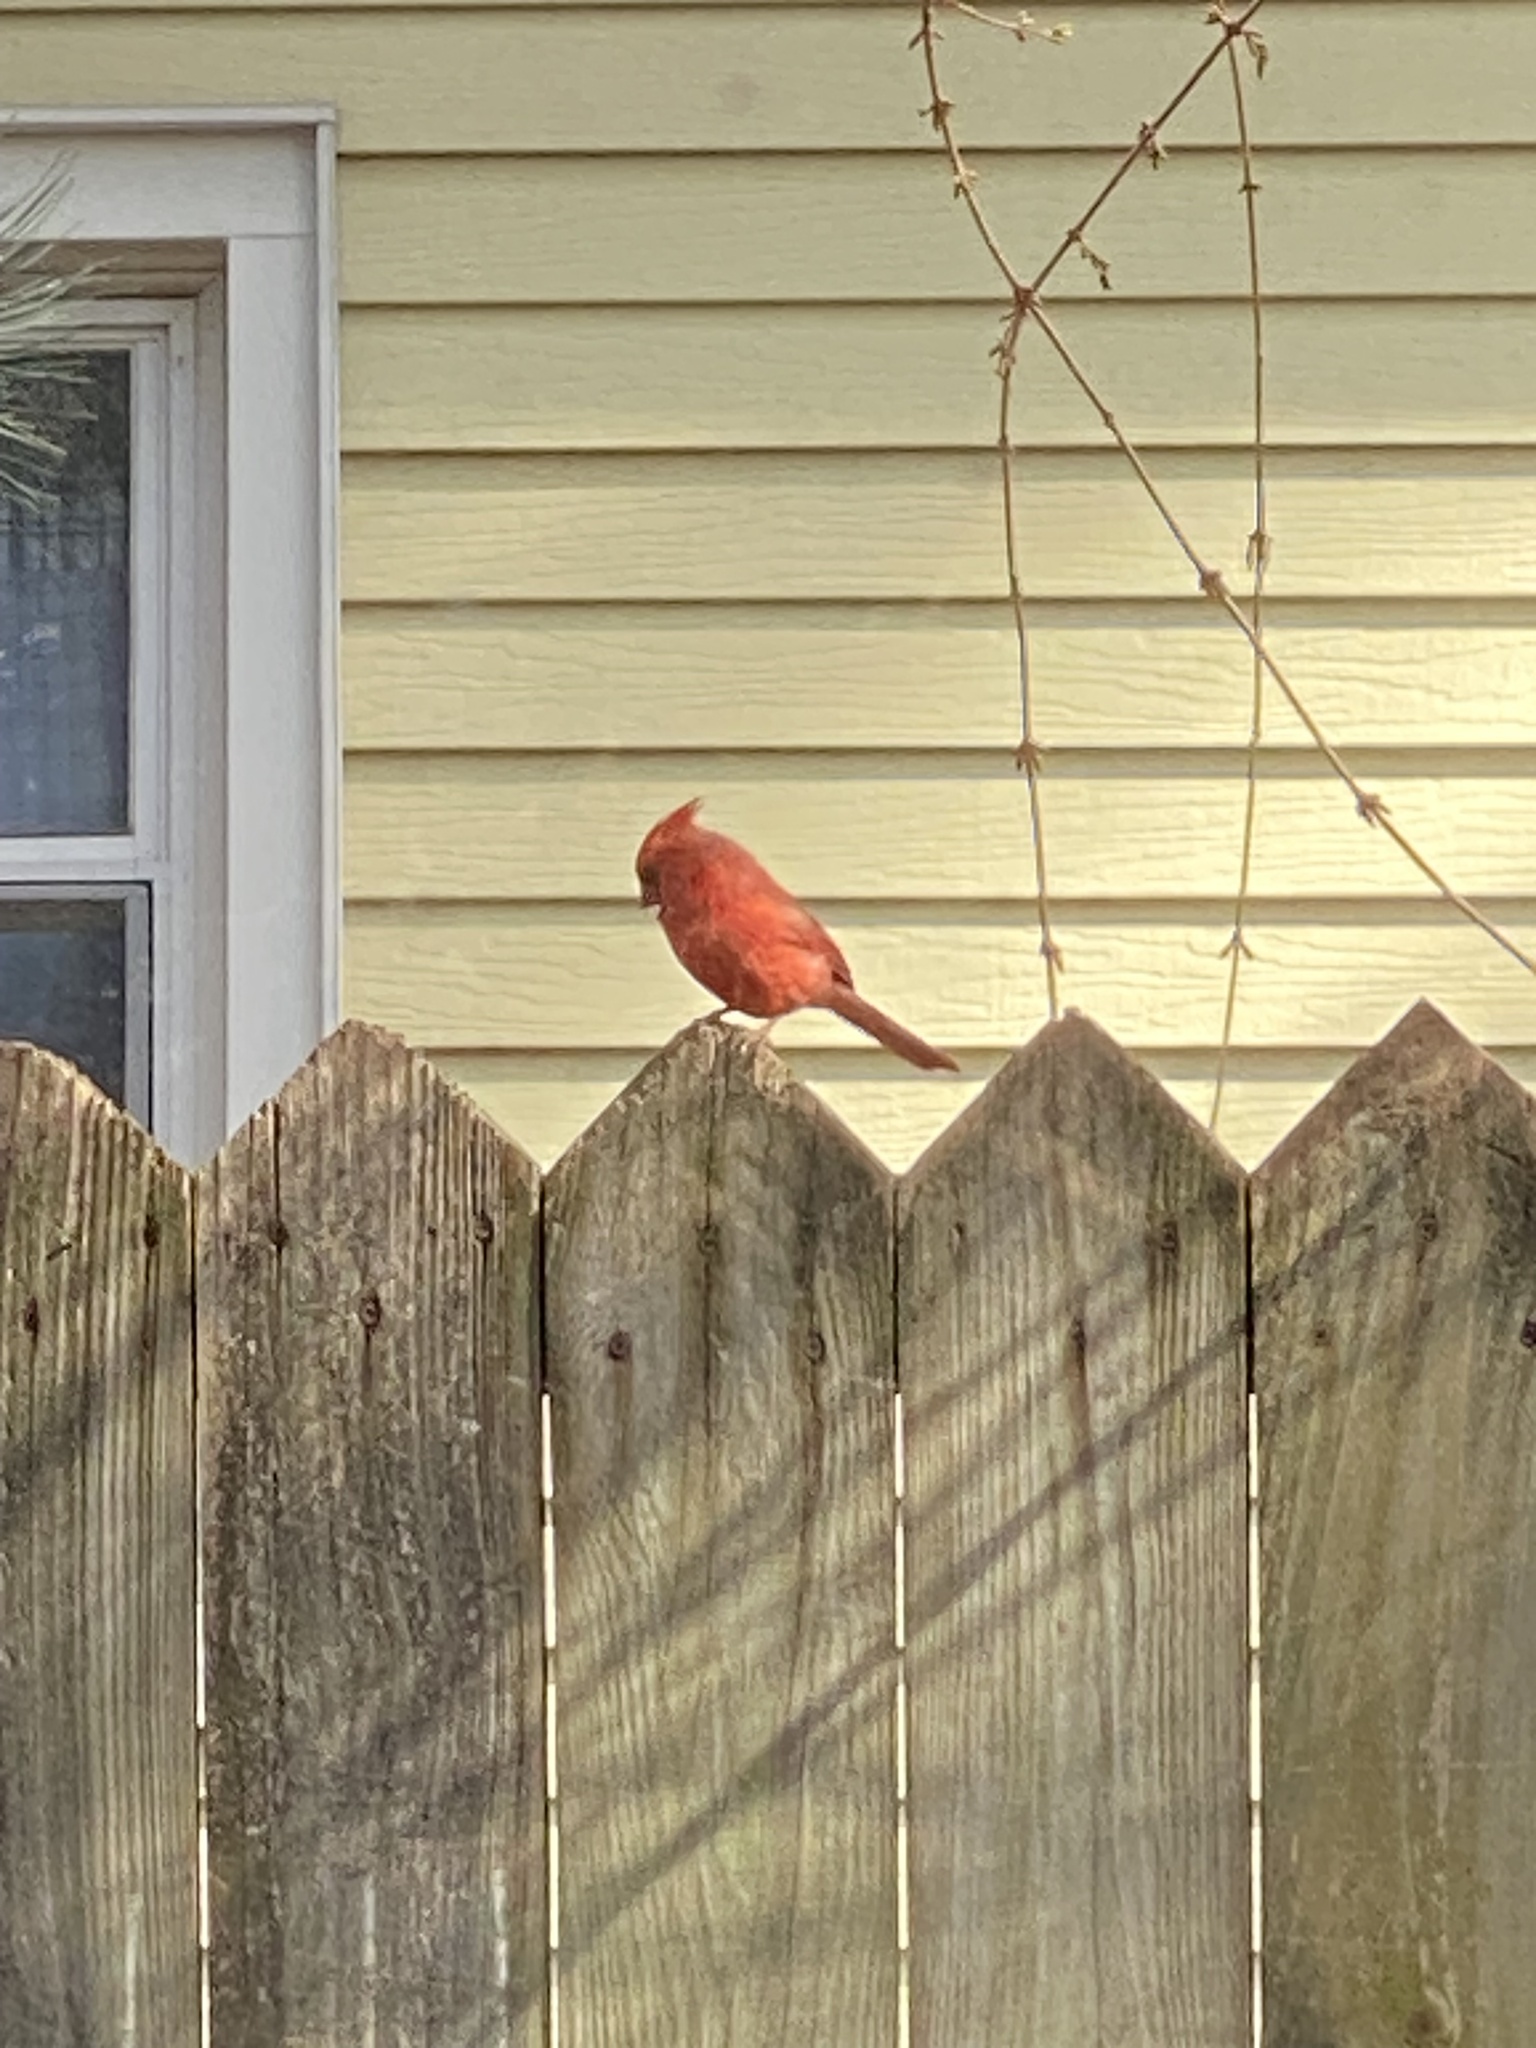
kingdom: Animalia
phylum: Chordata
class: Aves
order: Passeriformes
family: Cardinalidae
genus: Cardinalis
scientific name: Cardinalis cardinalis
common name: Northern cardinal
